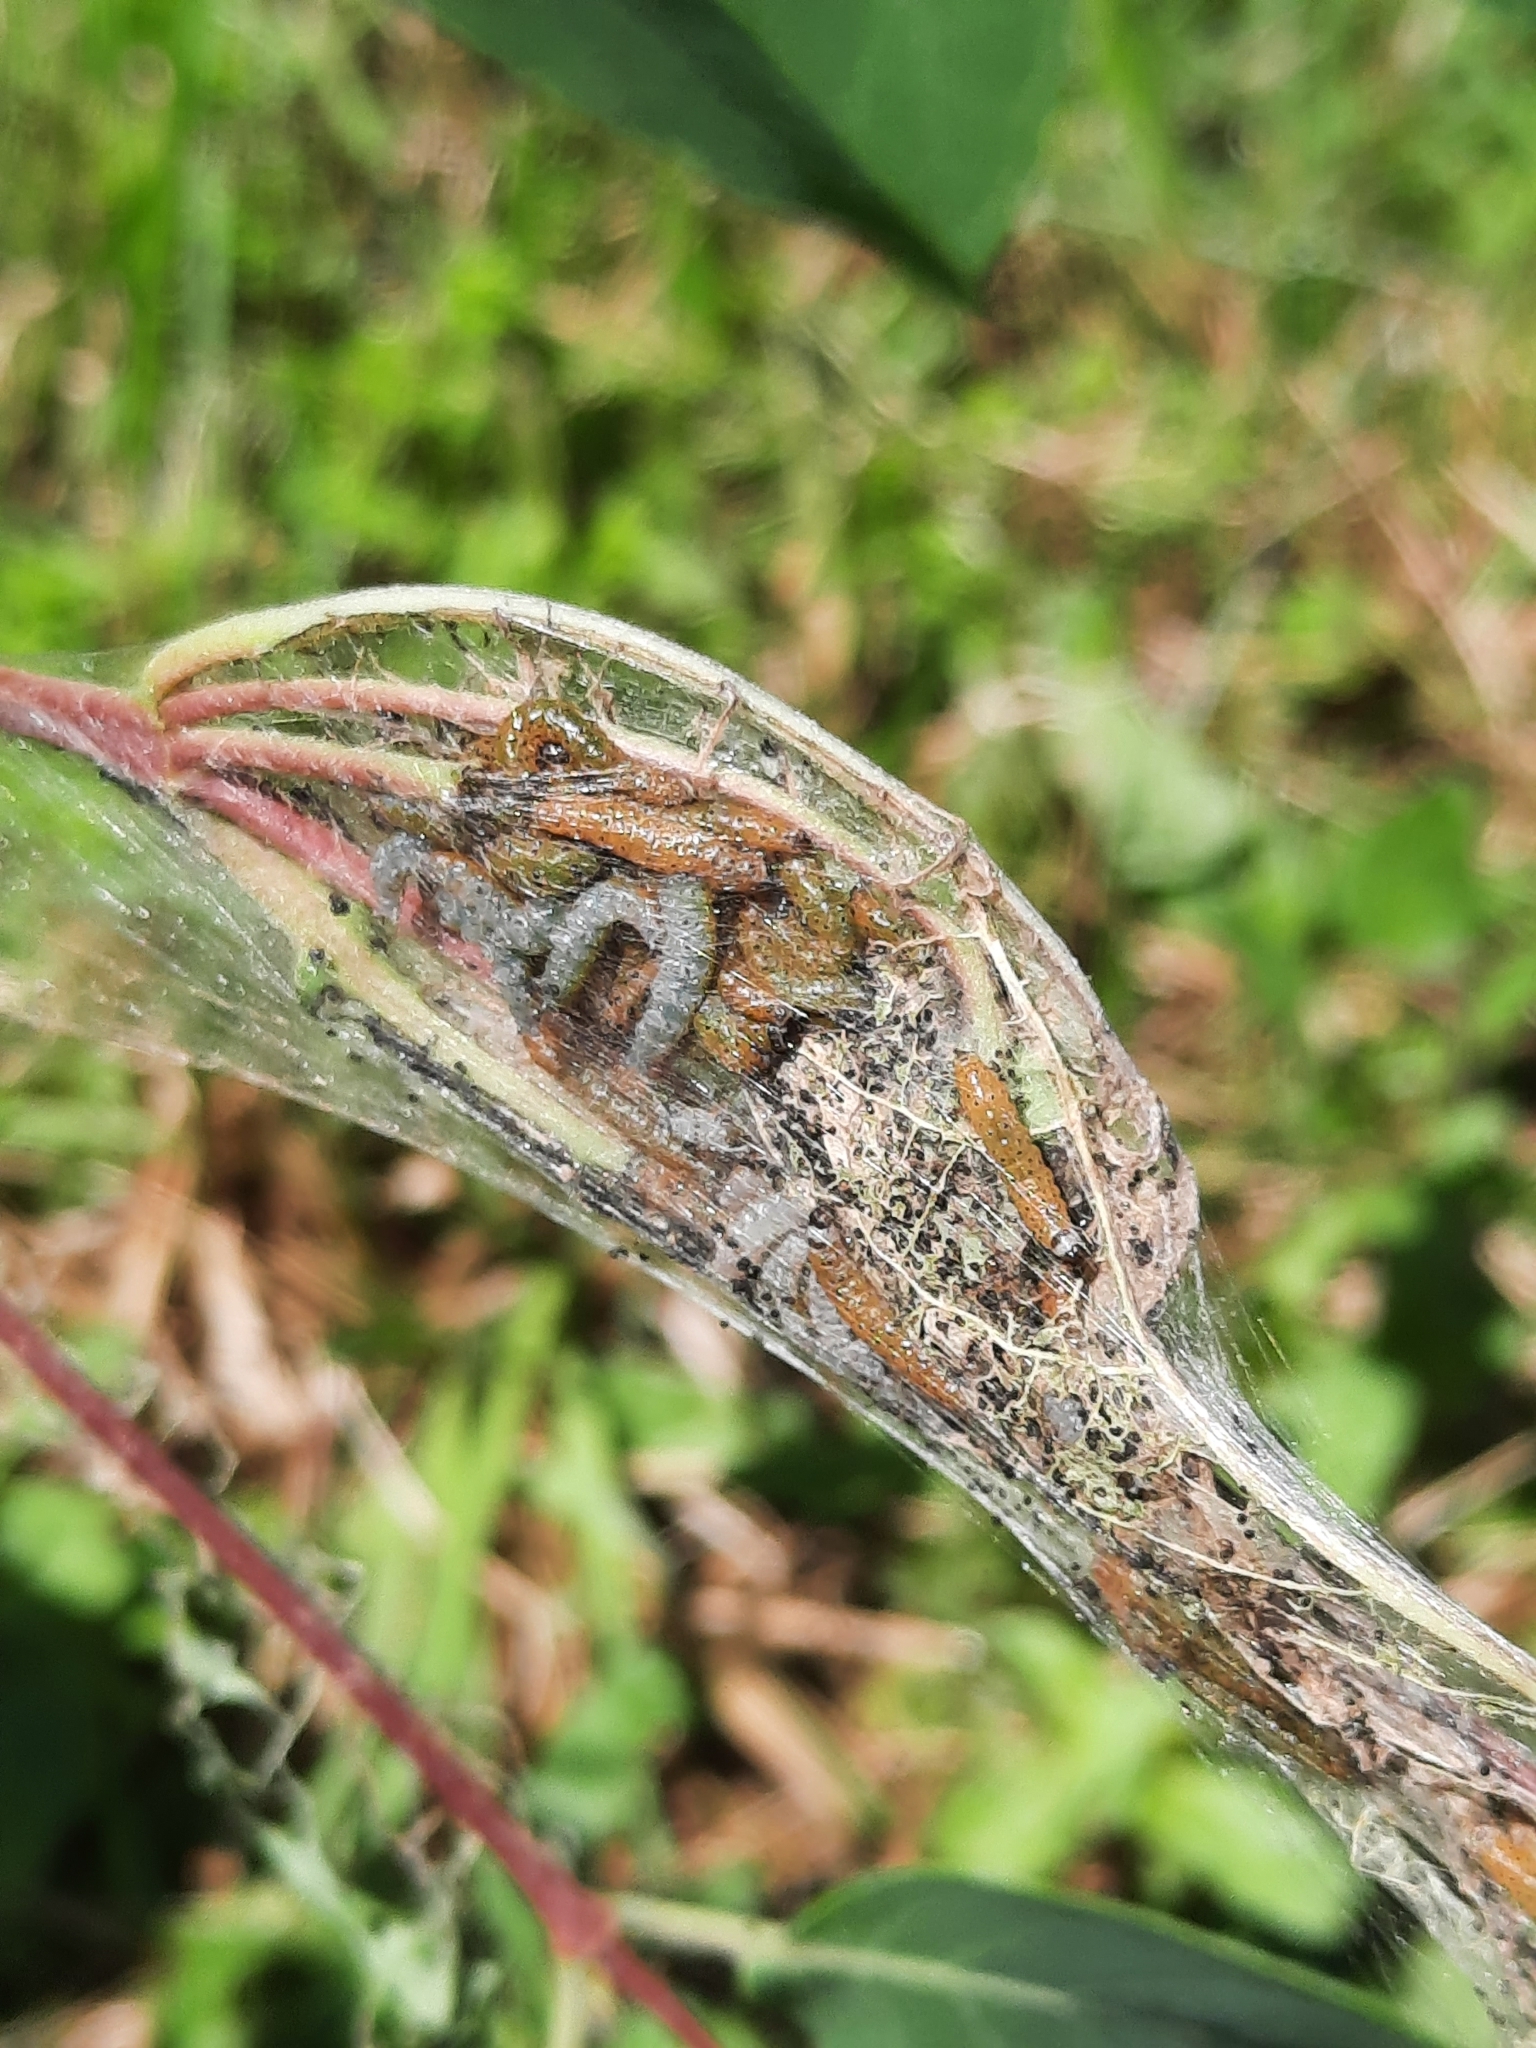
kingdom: Animalia
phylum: Arthropoda
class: Insecta
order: Lepidoptera
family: Crambidae
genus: Saucrobotys
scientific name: Saucrobotys futilalis
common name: Dogbane saucrobotys moth
